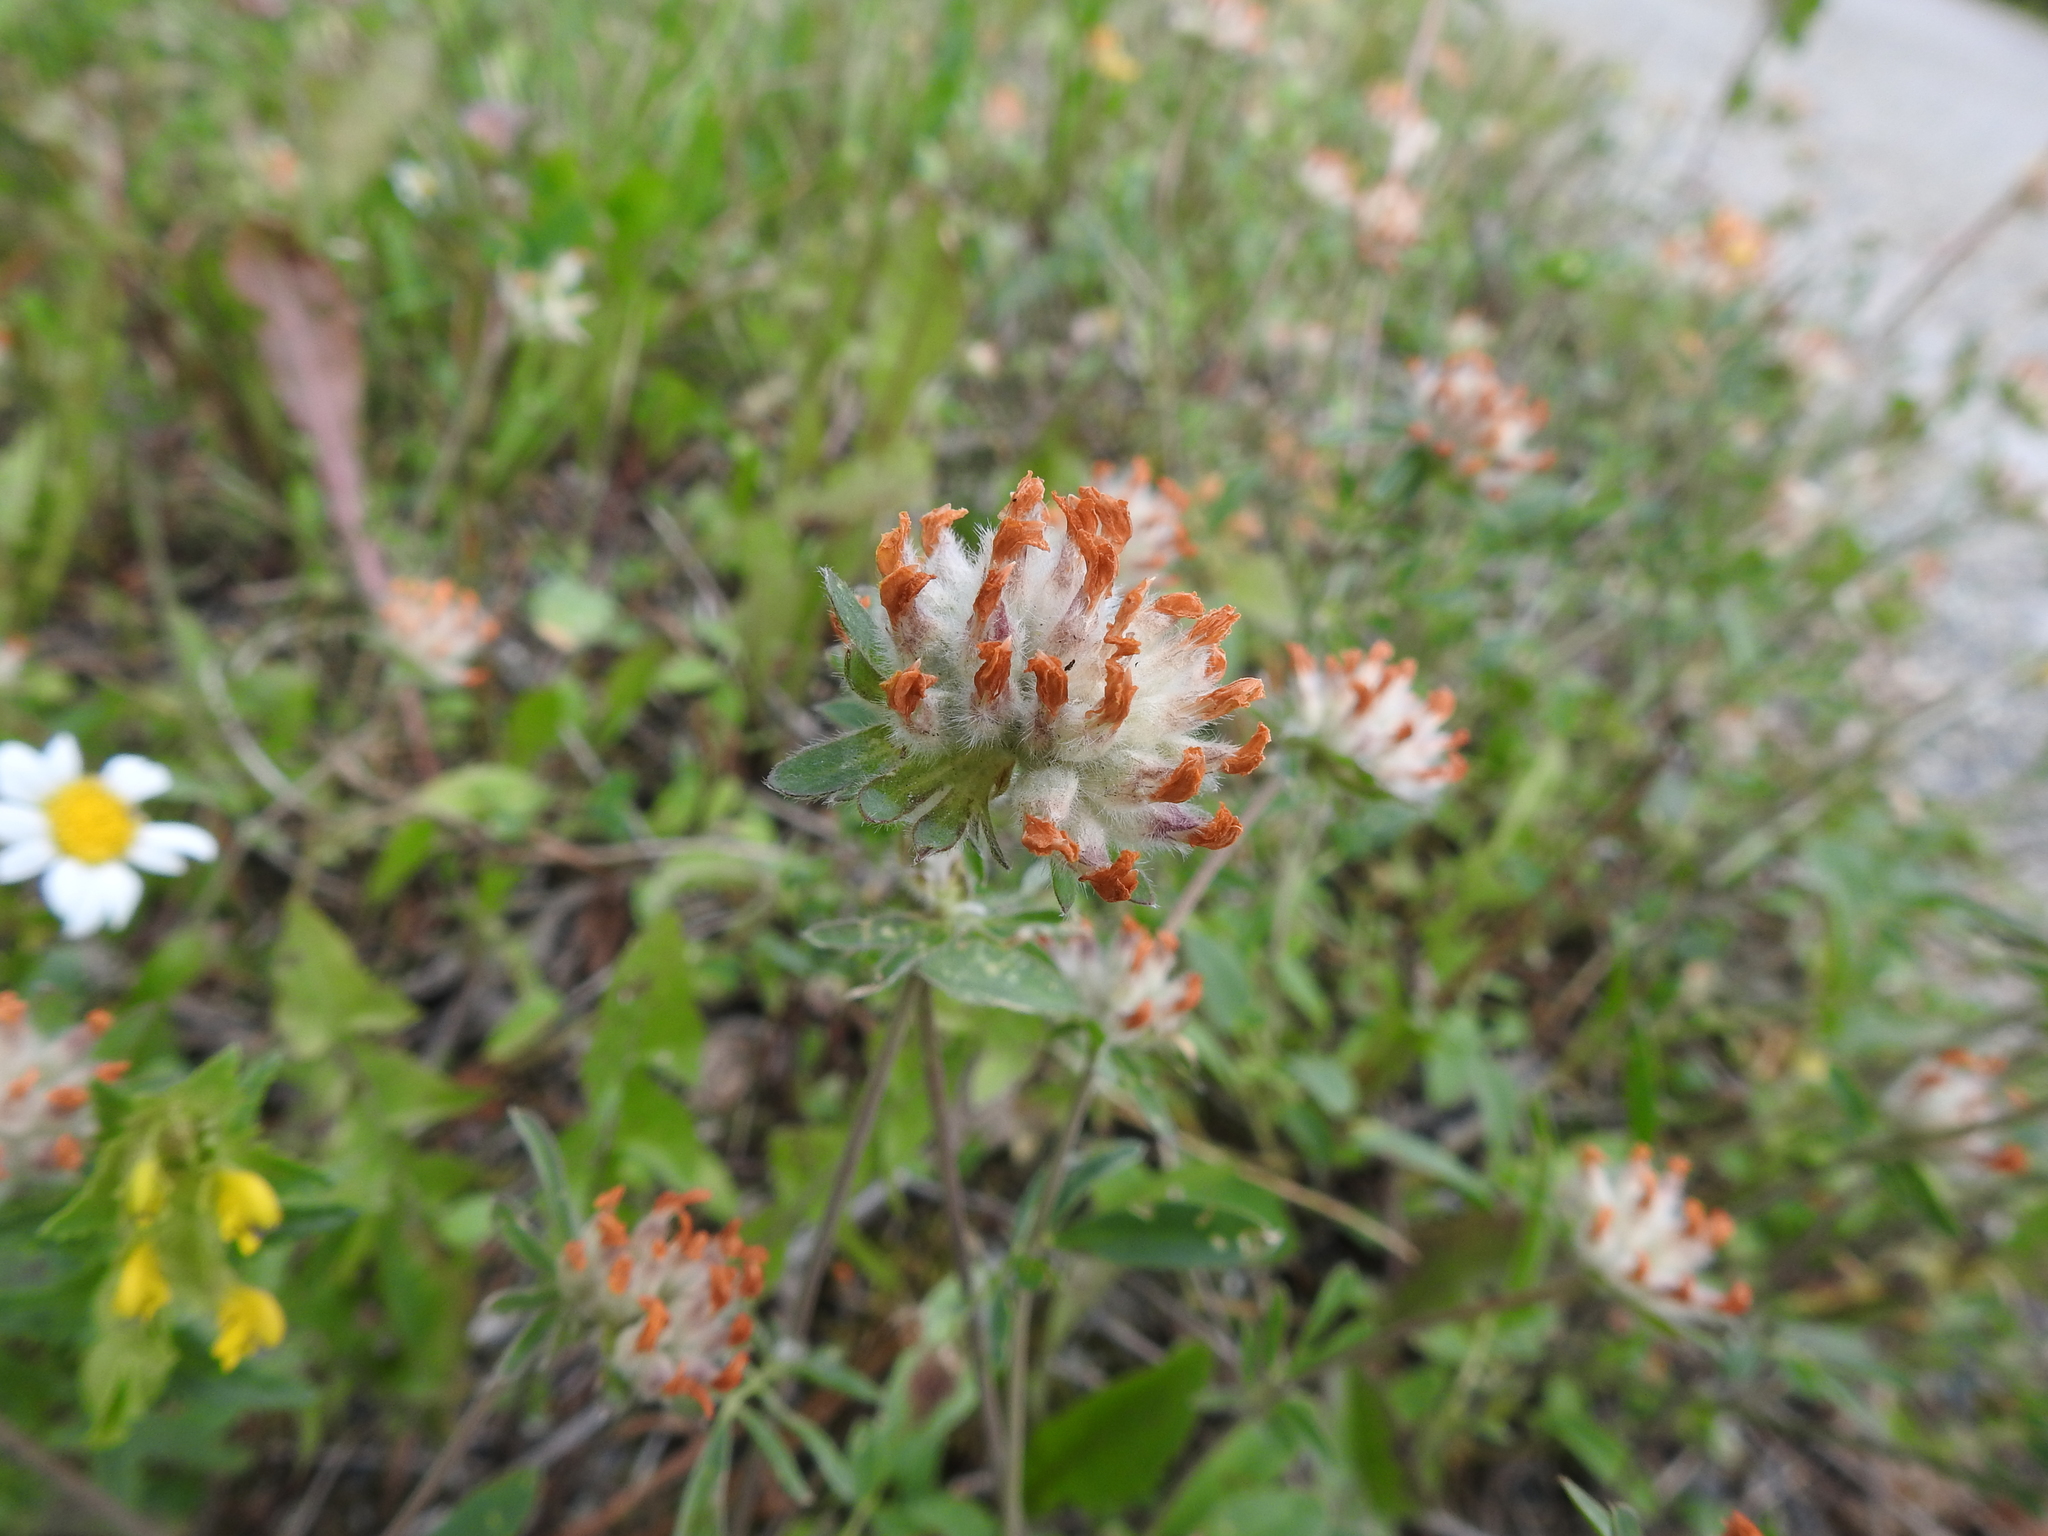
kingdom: Plantae
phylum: Tracheophyta
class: Magnoliopsida
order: Fabales
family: Fabaceae
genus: Anthyllis
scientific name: Anthyllis vulneraria
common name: Kidney vetch
